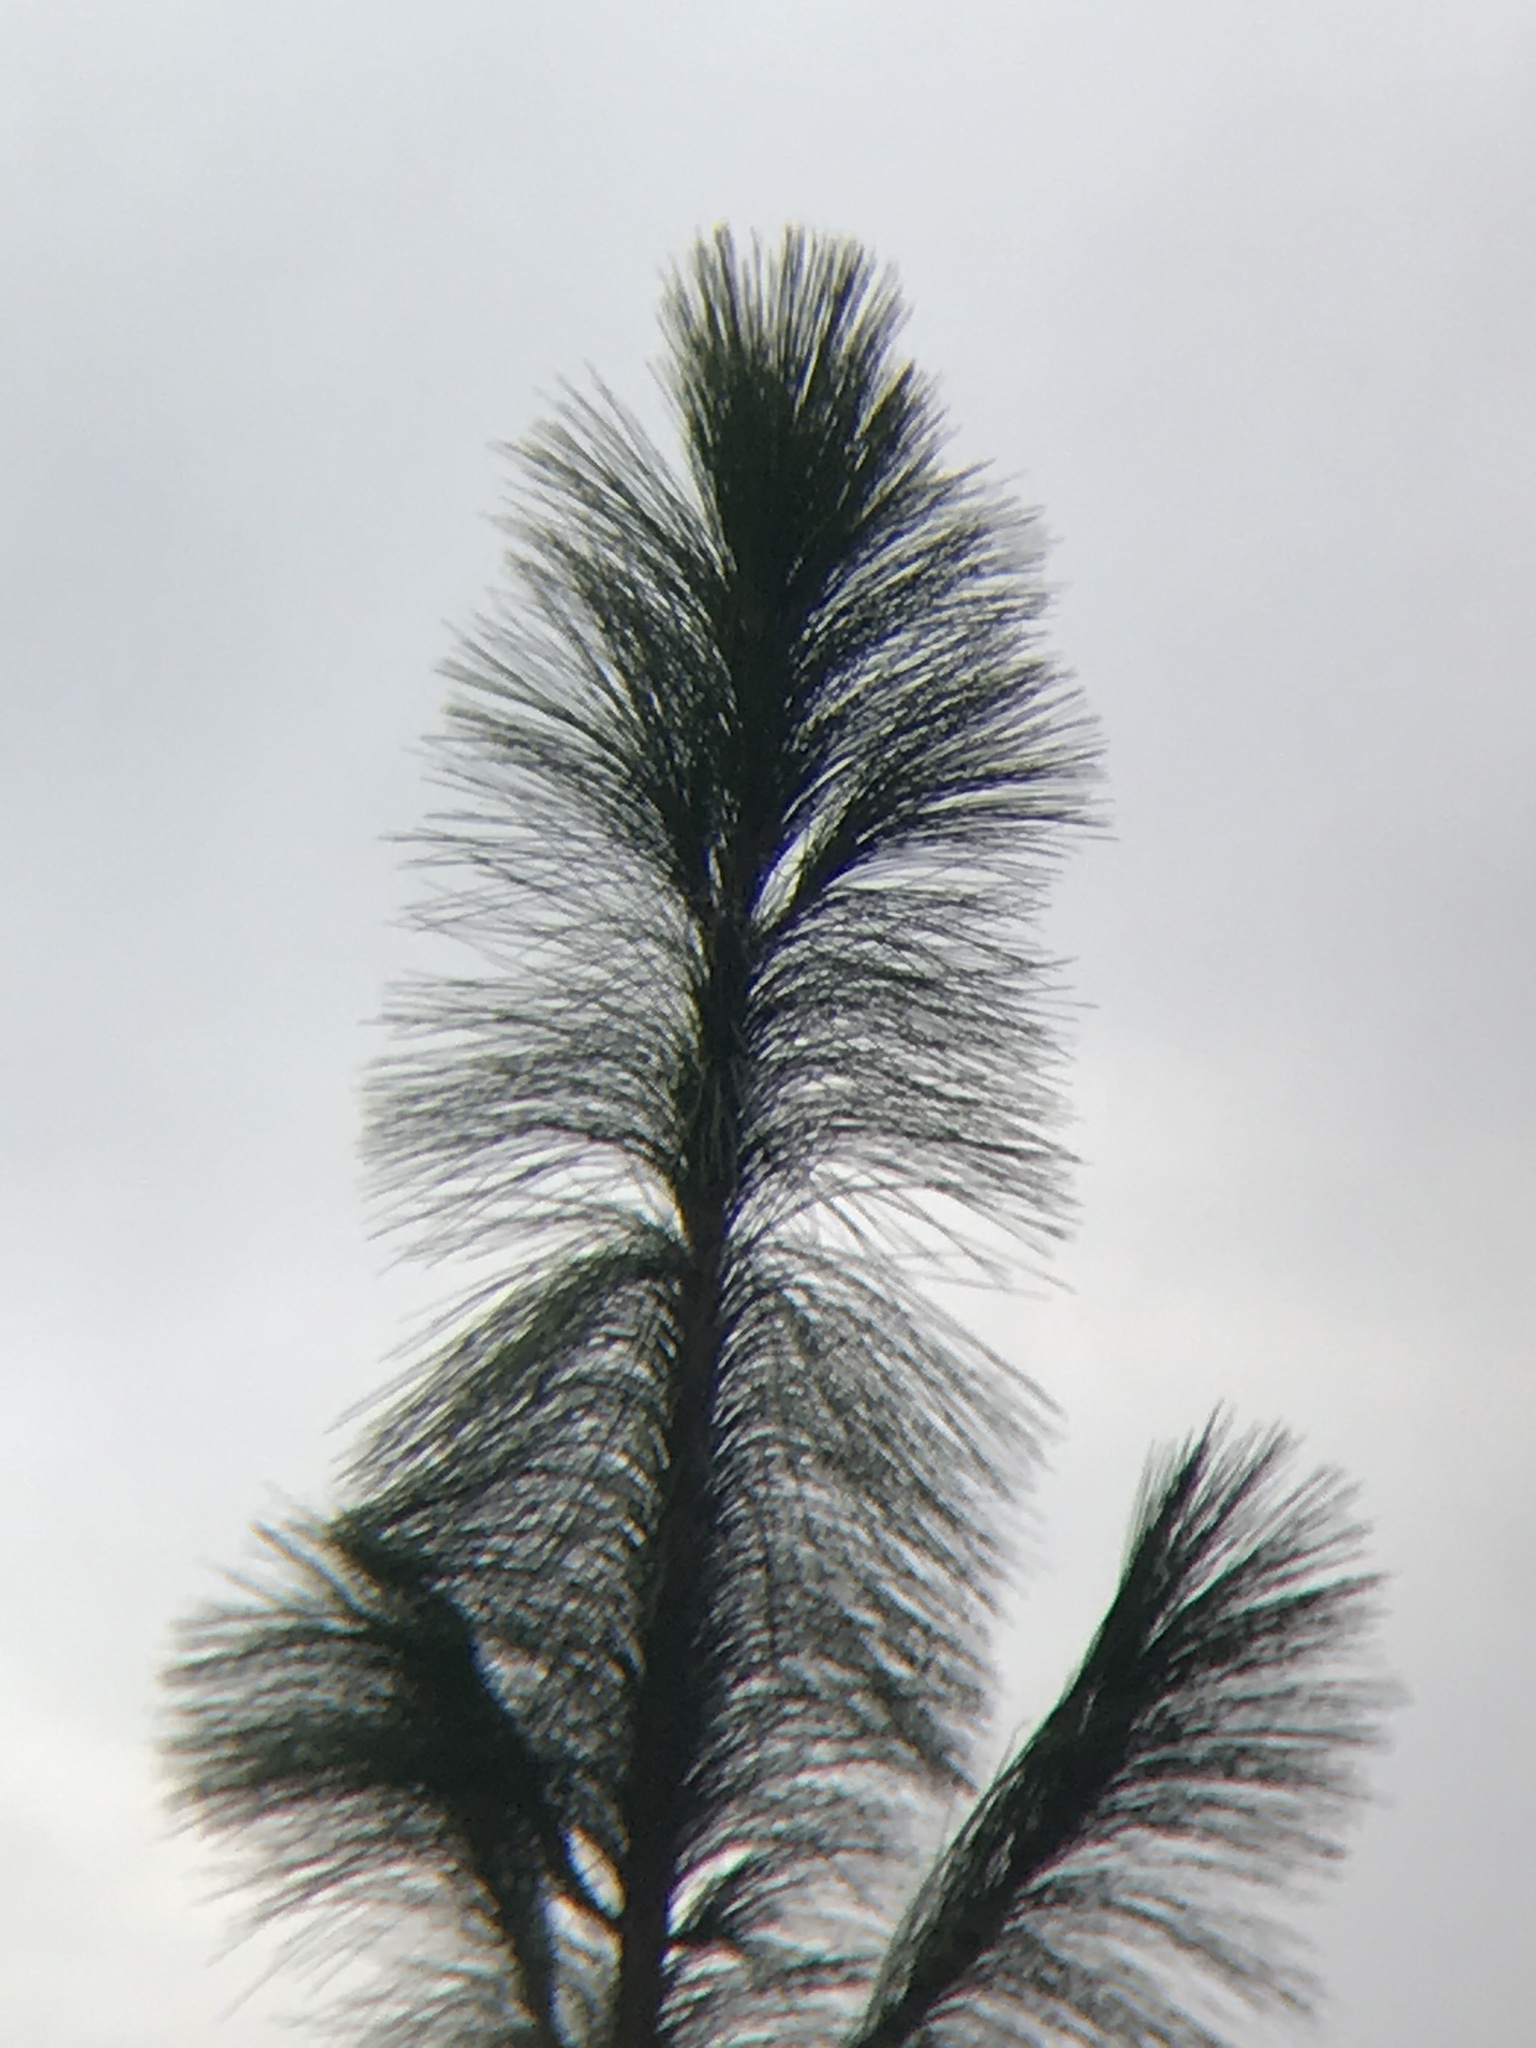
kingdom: Plantae
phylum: Tracheophyta
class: Pinopsida
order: Pinales
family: Pinaceae
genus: Pinus
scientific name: Pinus palustris
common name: Longleaf pine
